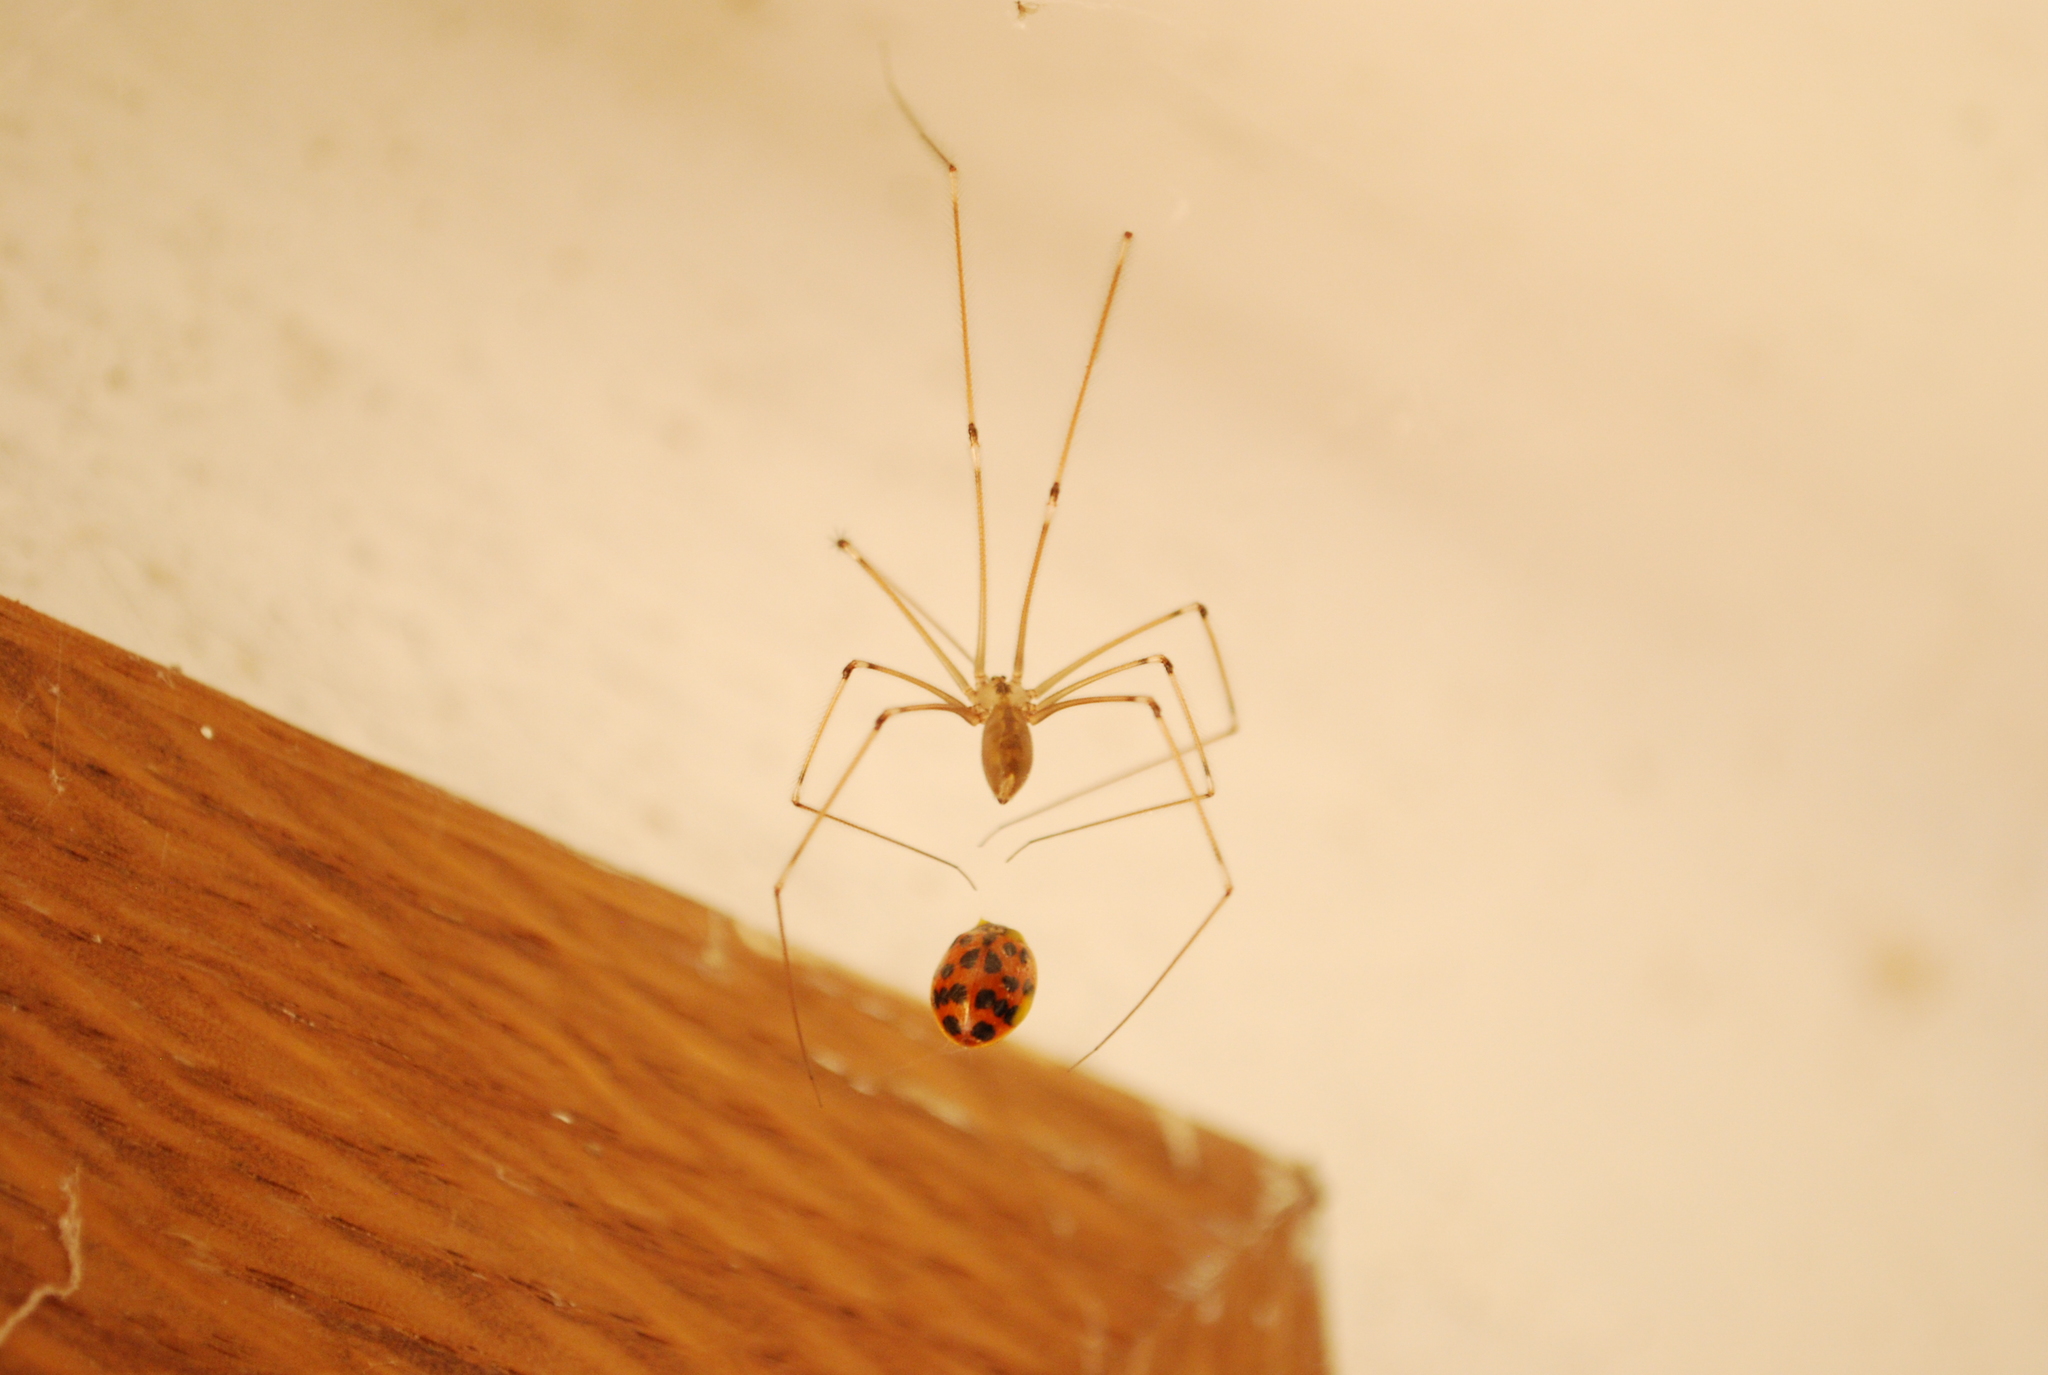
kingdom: Animalia
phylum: Arthropoda
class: Arachnida
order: Araneae
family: Pholcidae
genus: Pholcus
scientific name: Pholcus phalangioides
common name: Longbodied cellar spider
